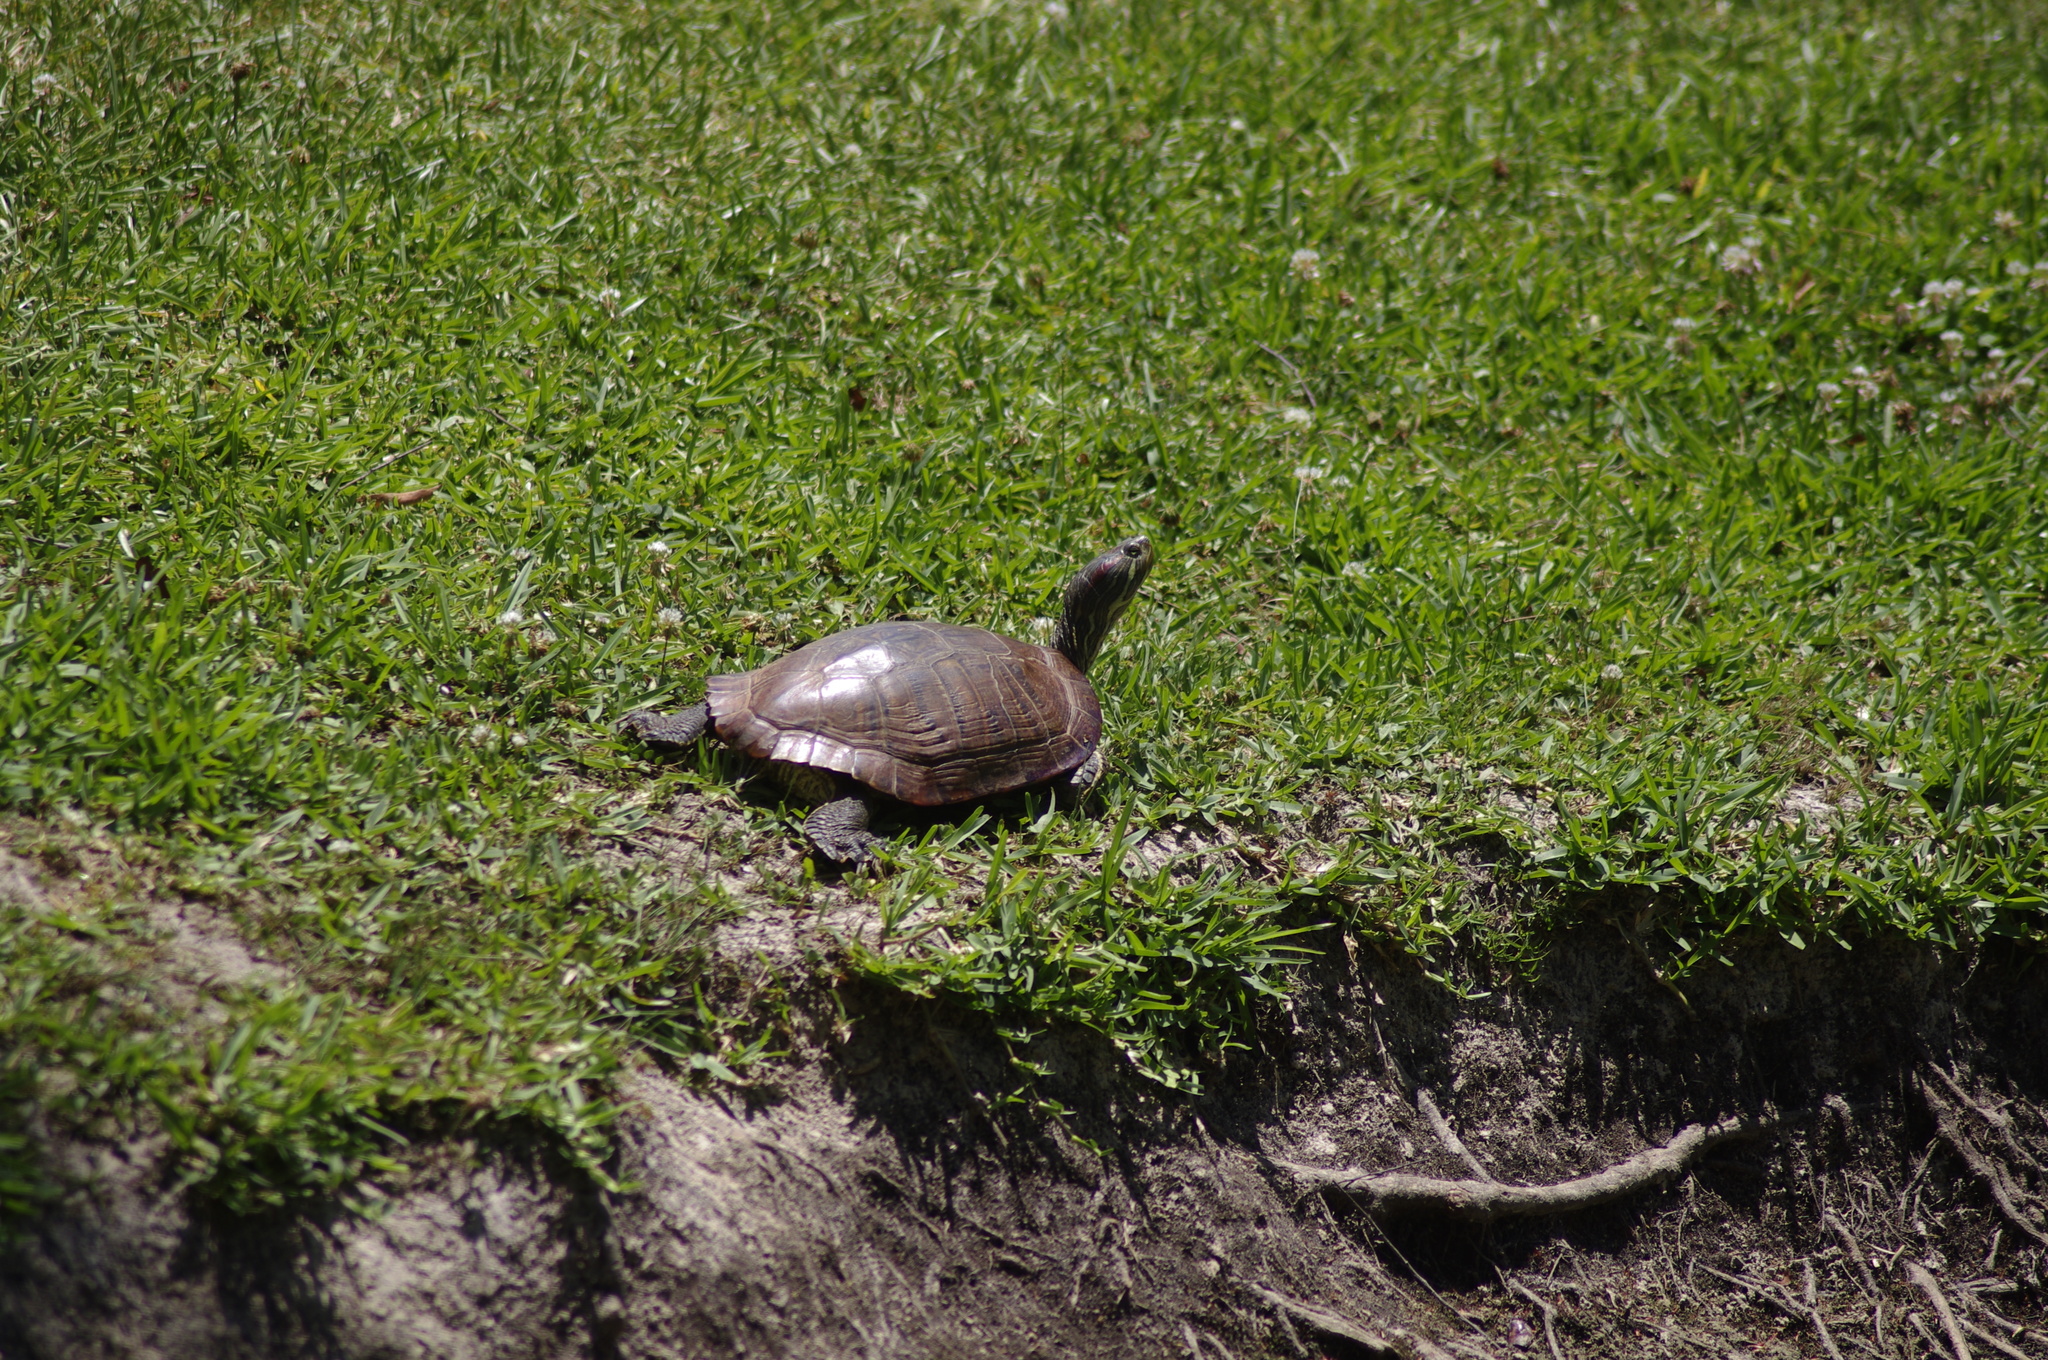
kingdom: Animalia
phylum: Chordata
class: Testudines
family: Emydidae
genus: Trachemys
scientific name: Trachemys scripta
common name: Slider
